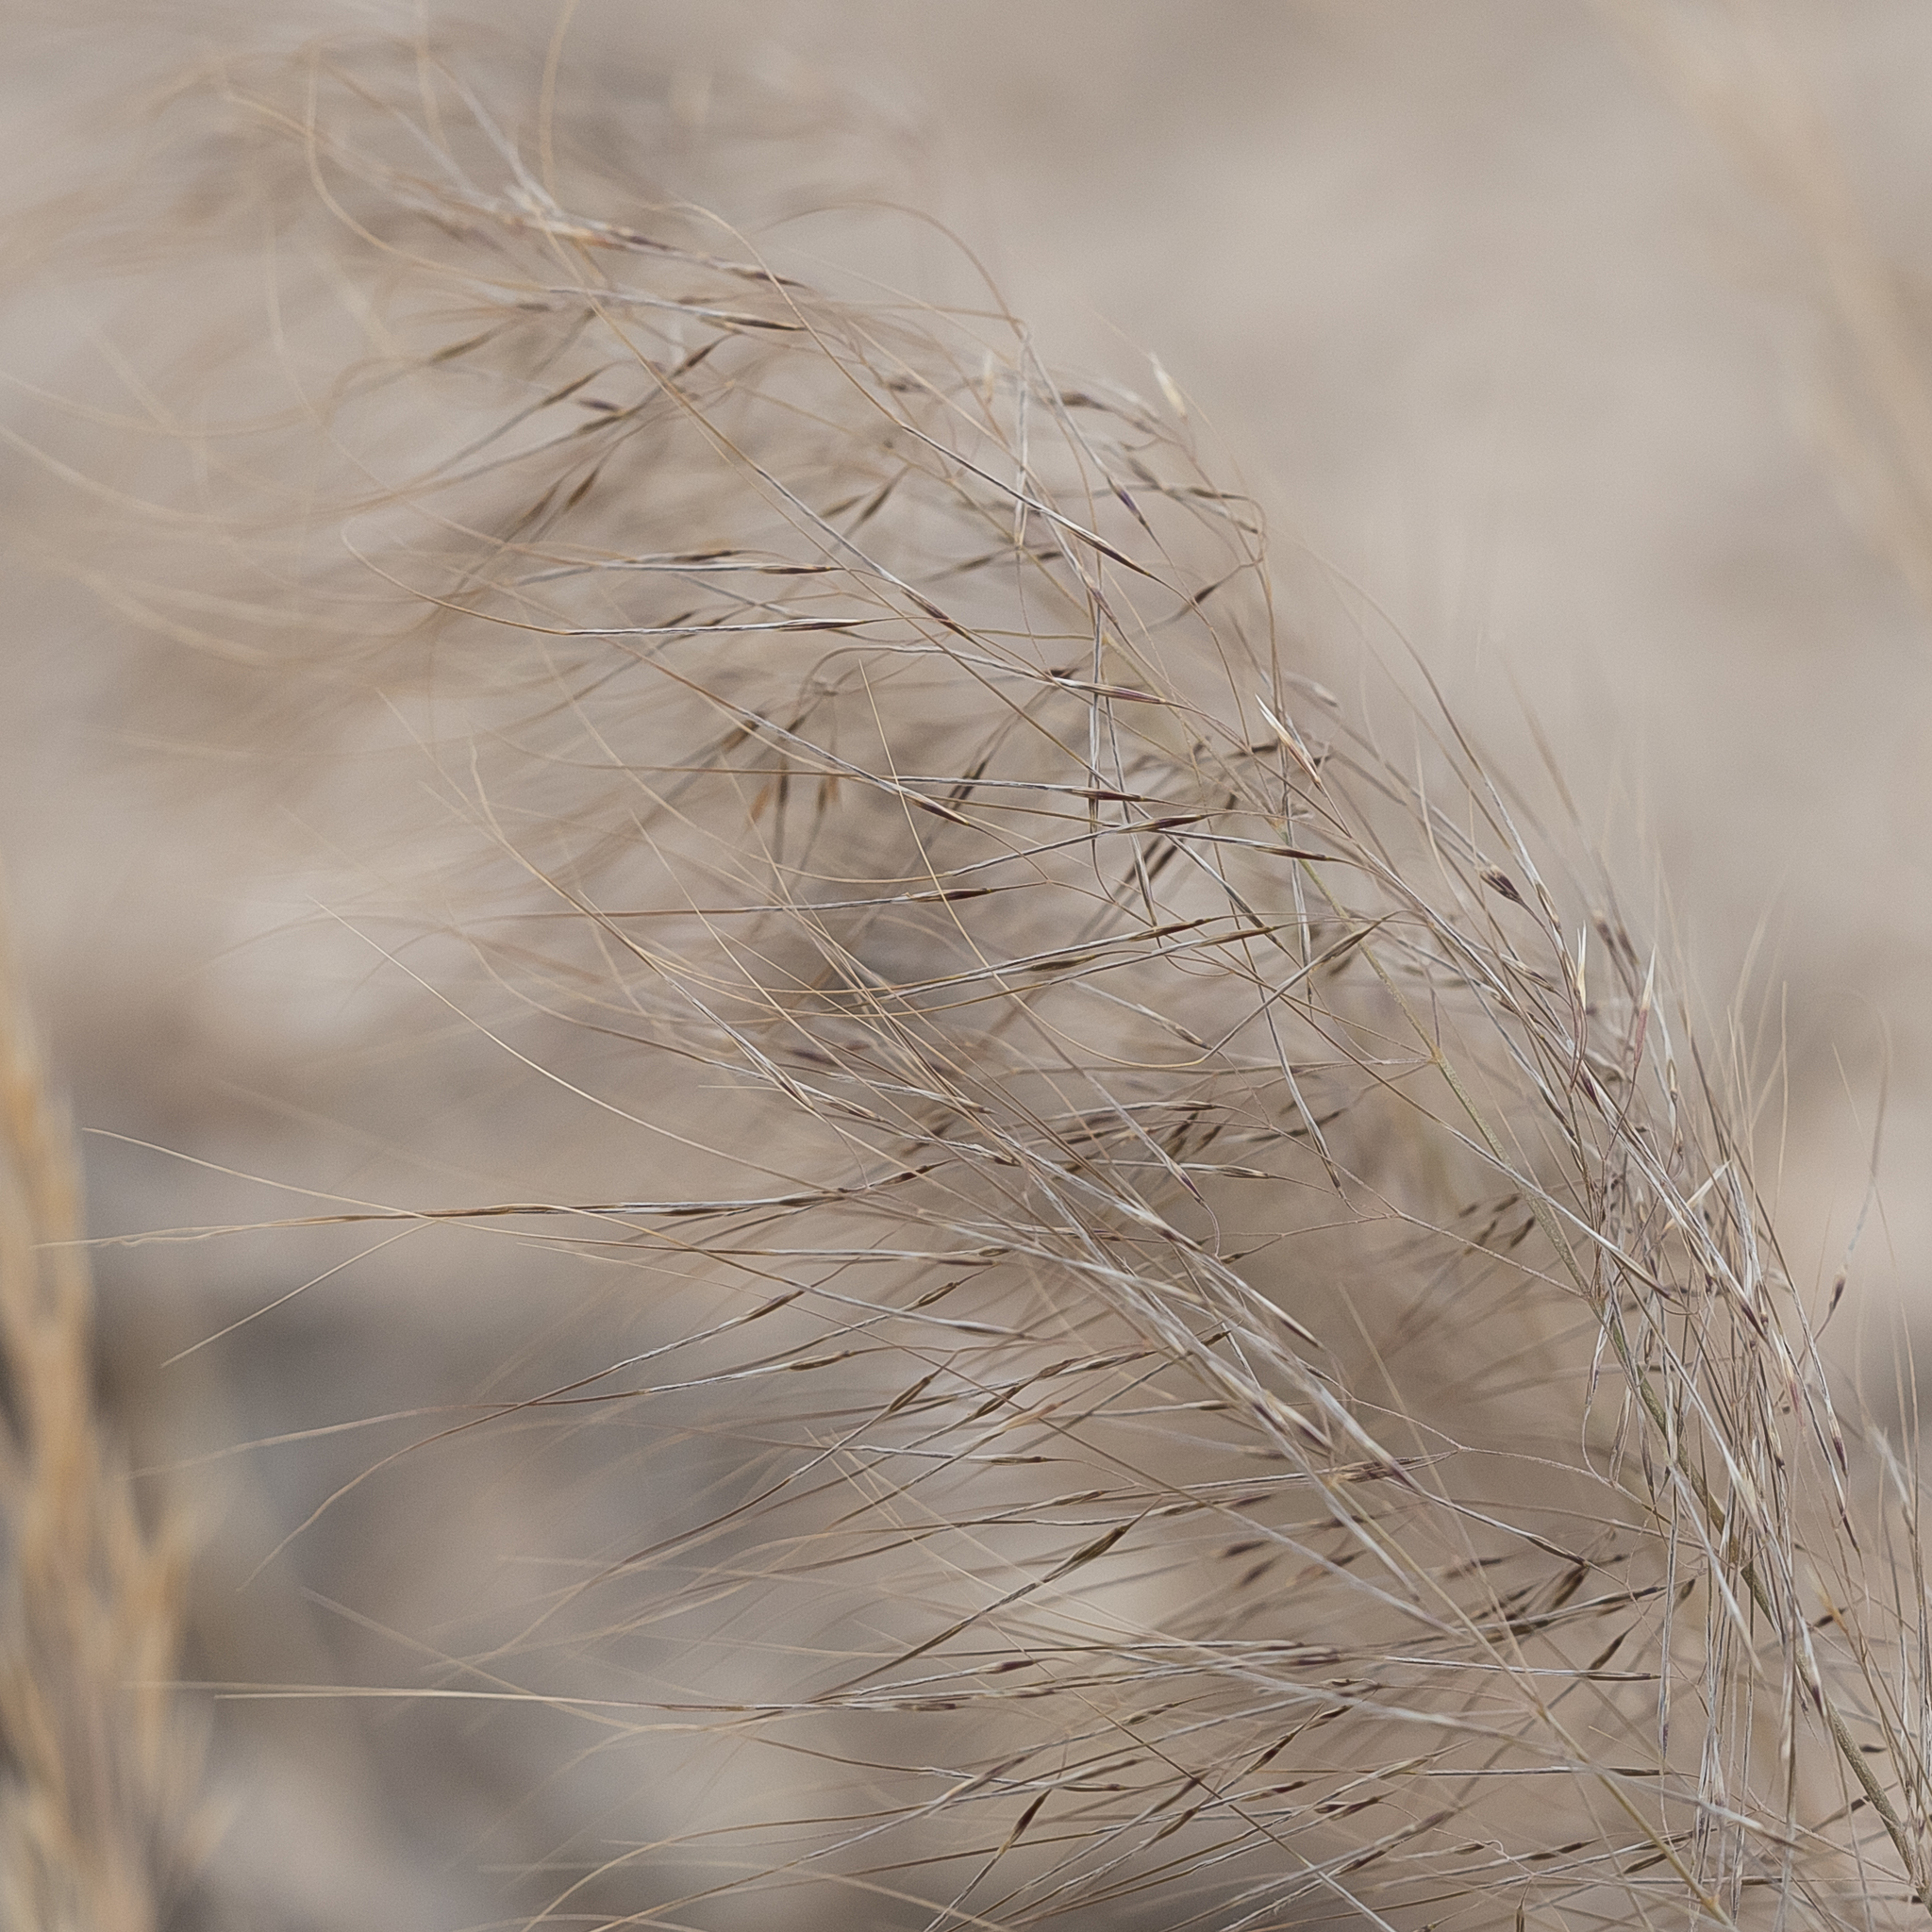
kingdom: Plantae
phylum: Tracheophyta
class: Liliopsida
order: Poales
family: Poaceae
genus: Austrostipa
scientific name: Austrostipa drummondii
